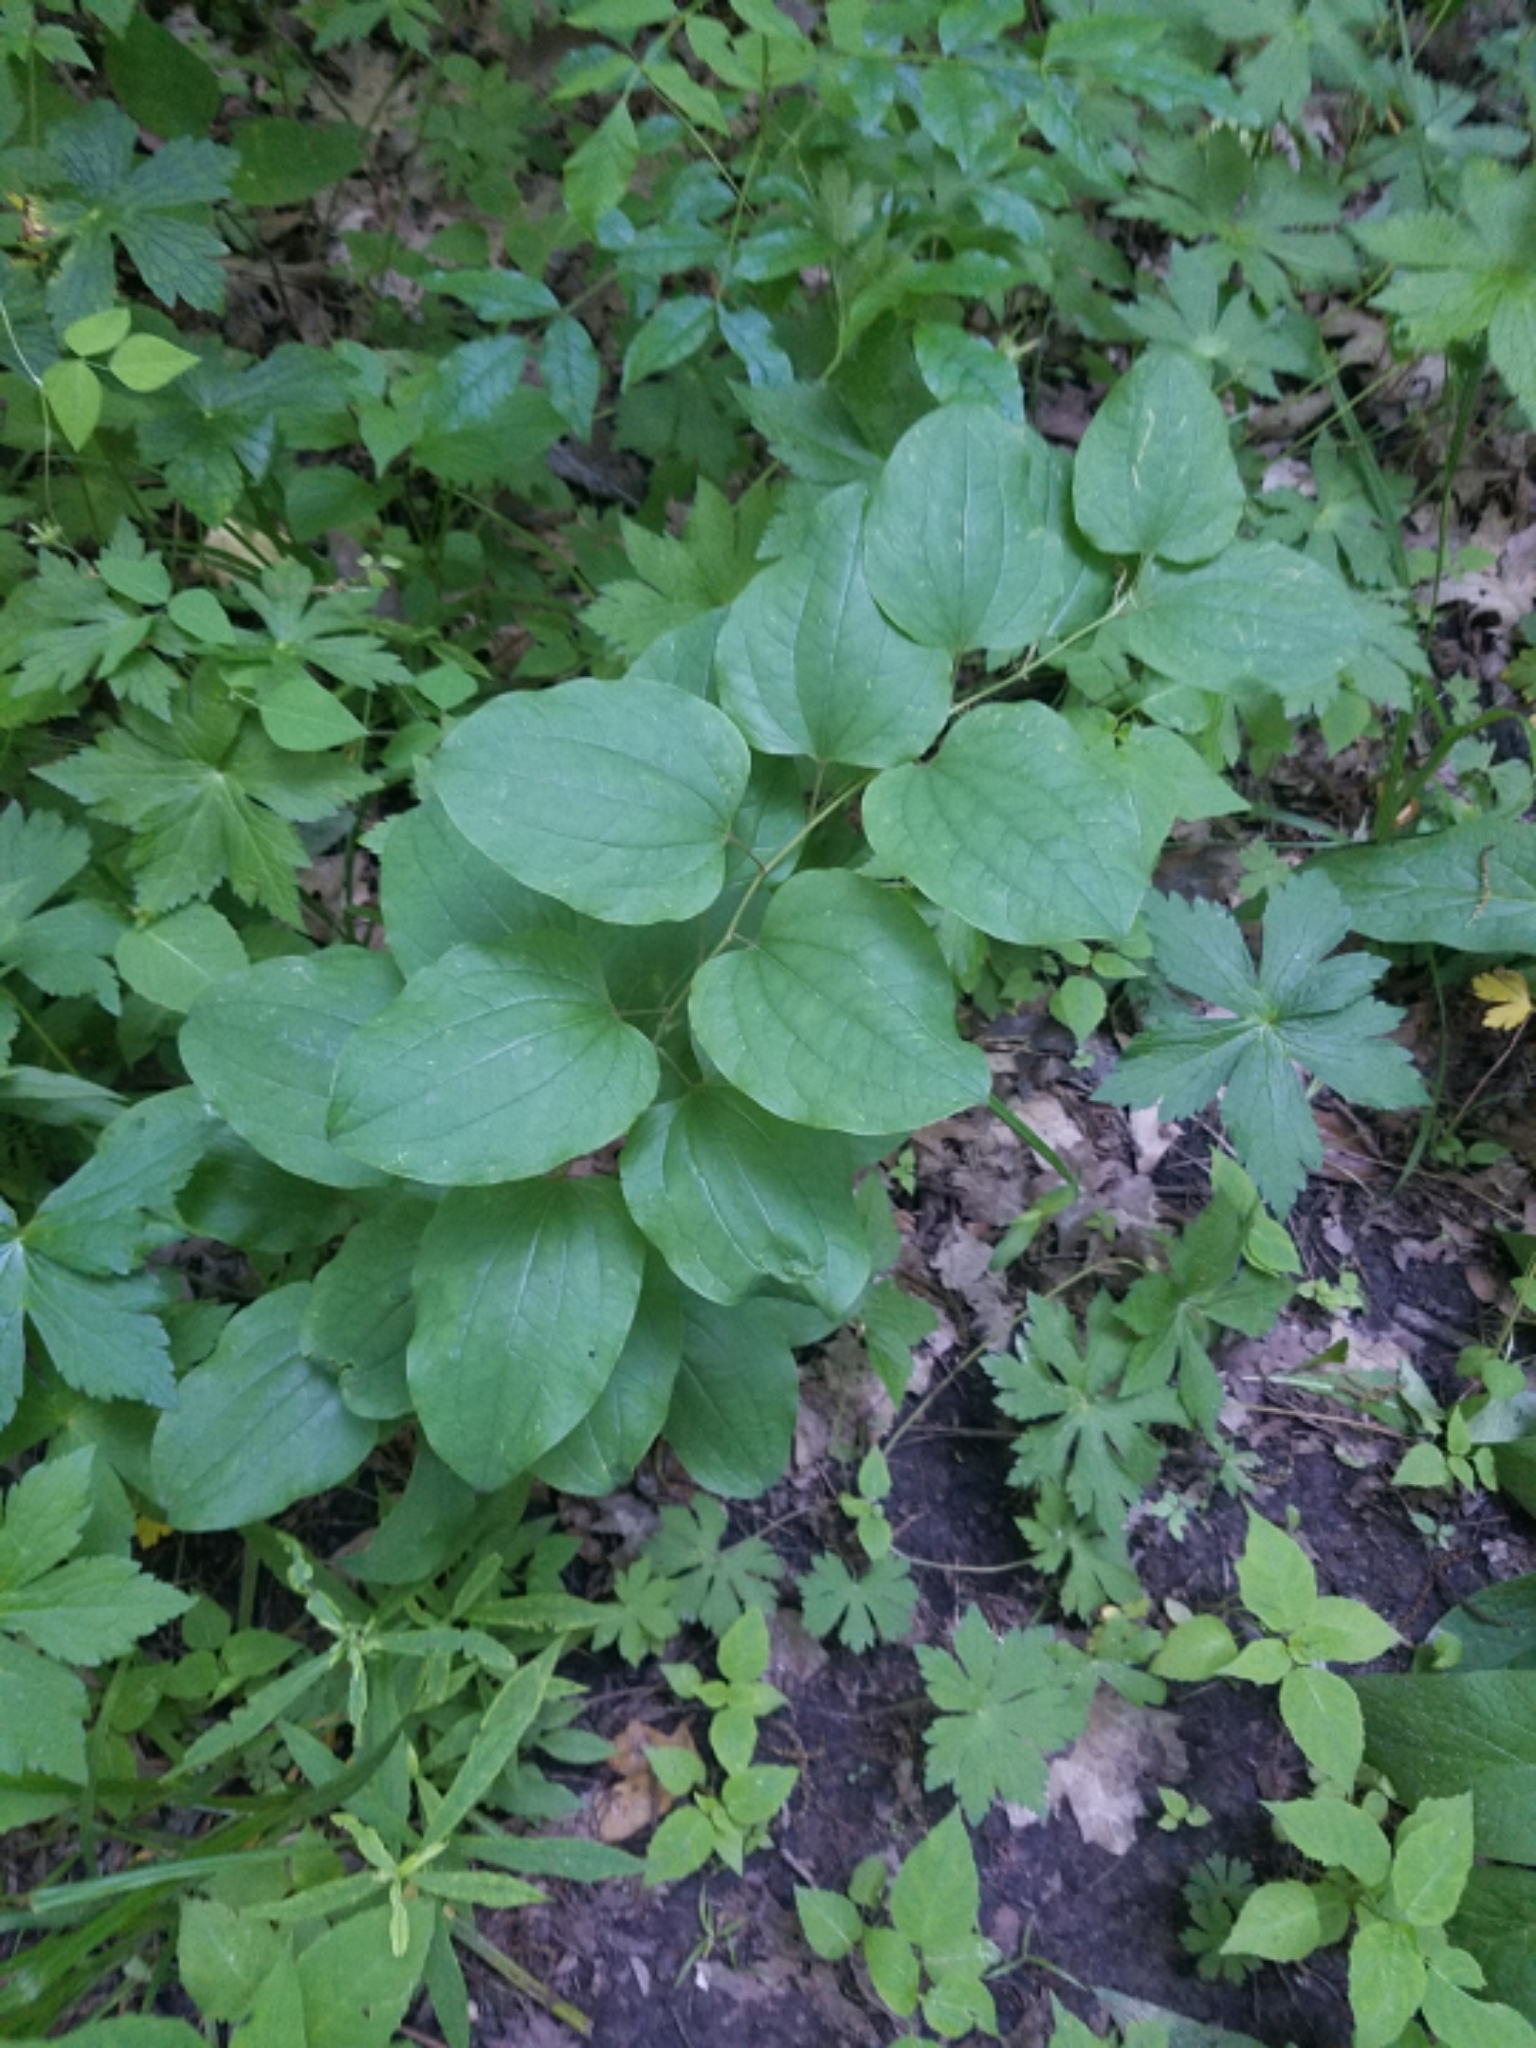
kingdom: Plantae
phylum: Tracheophyta
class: Liliopsida
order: Liliales
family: Smilacaceae
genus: Smilax
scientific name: Smilax lasioneura
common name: Blue ridge carrionflower
